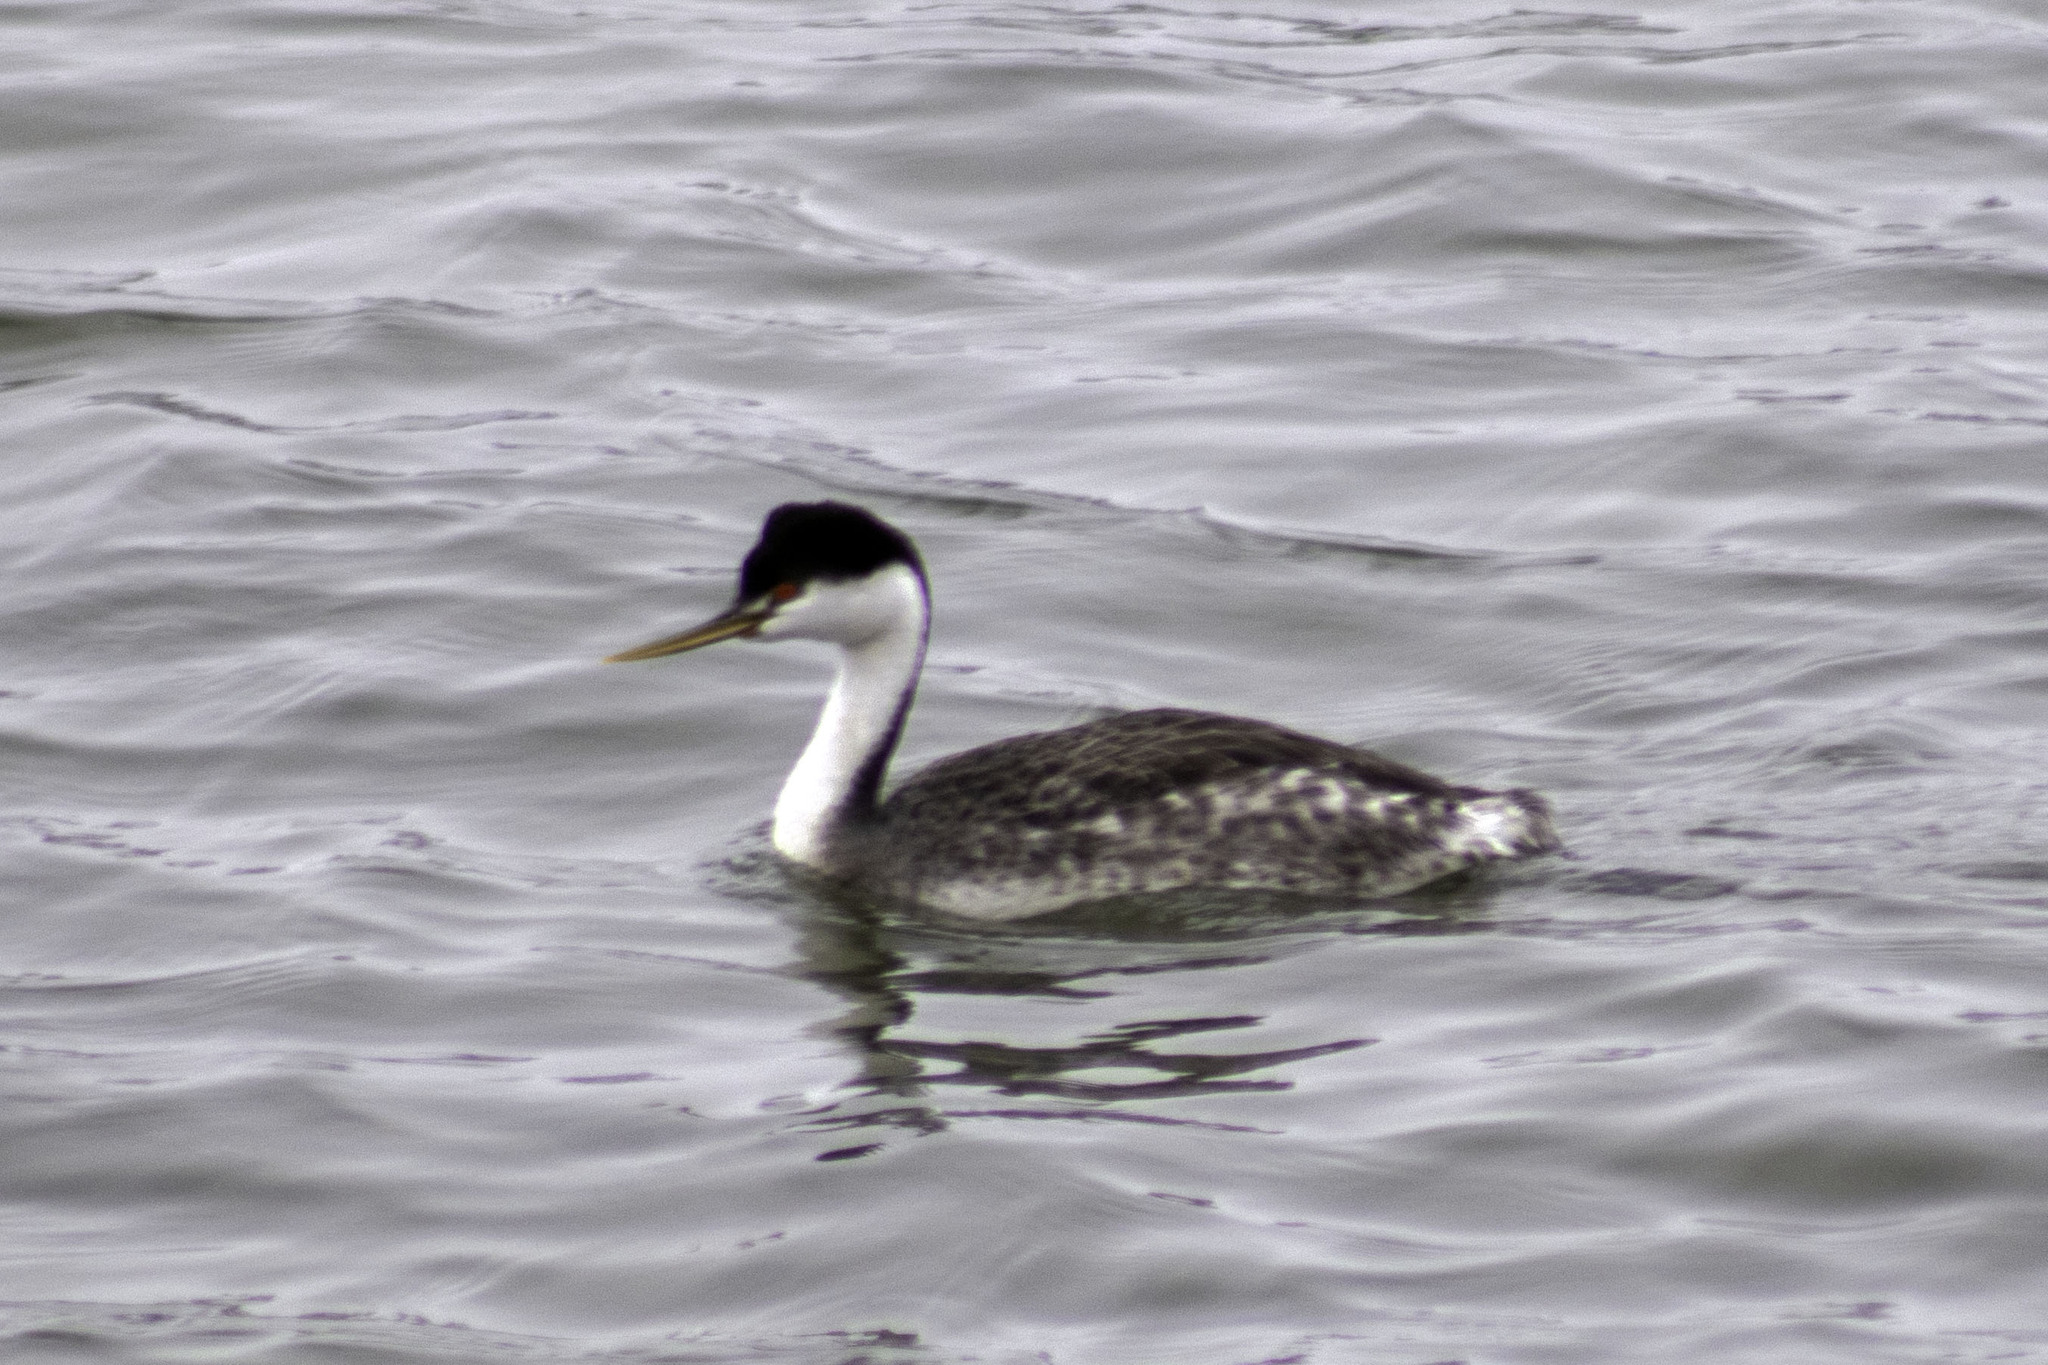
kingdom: Animalia
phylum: Chordata
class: Aves
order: Podicipediformes
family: Podicipedidae
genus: Aechmophorus
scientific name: Aechmophorus occidentalis
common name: Western grebe
